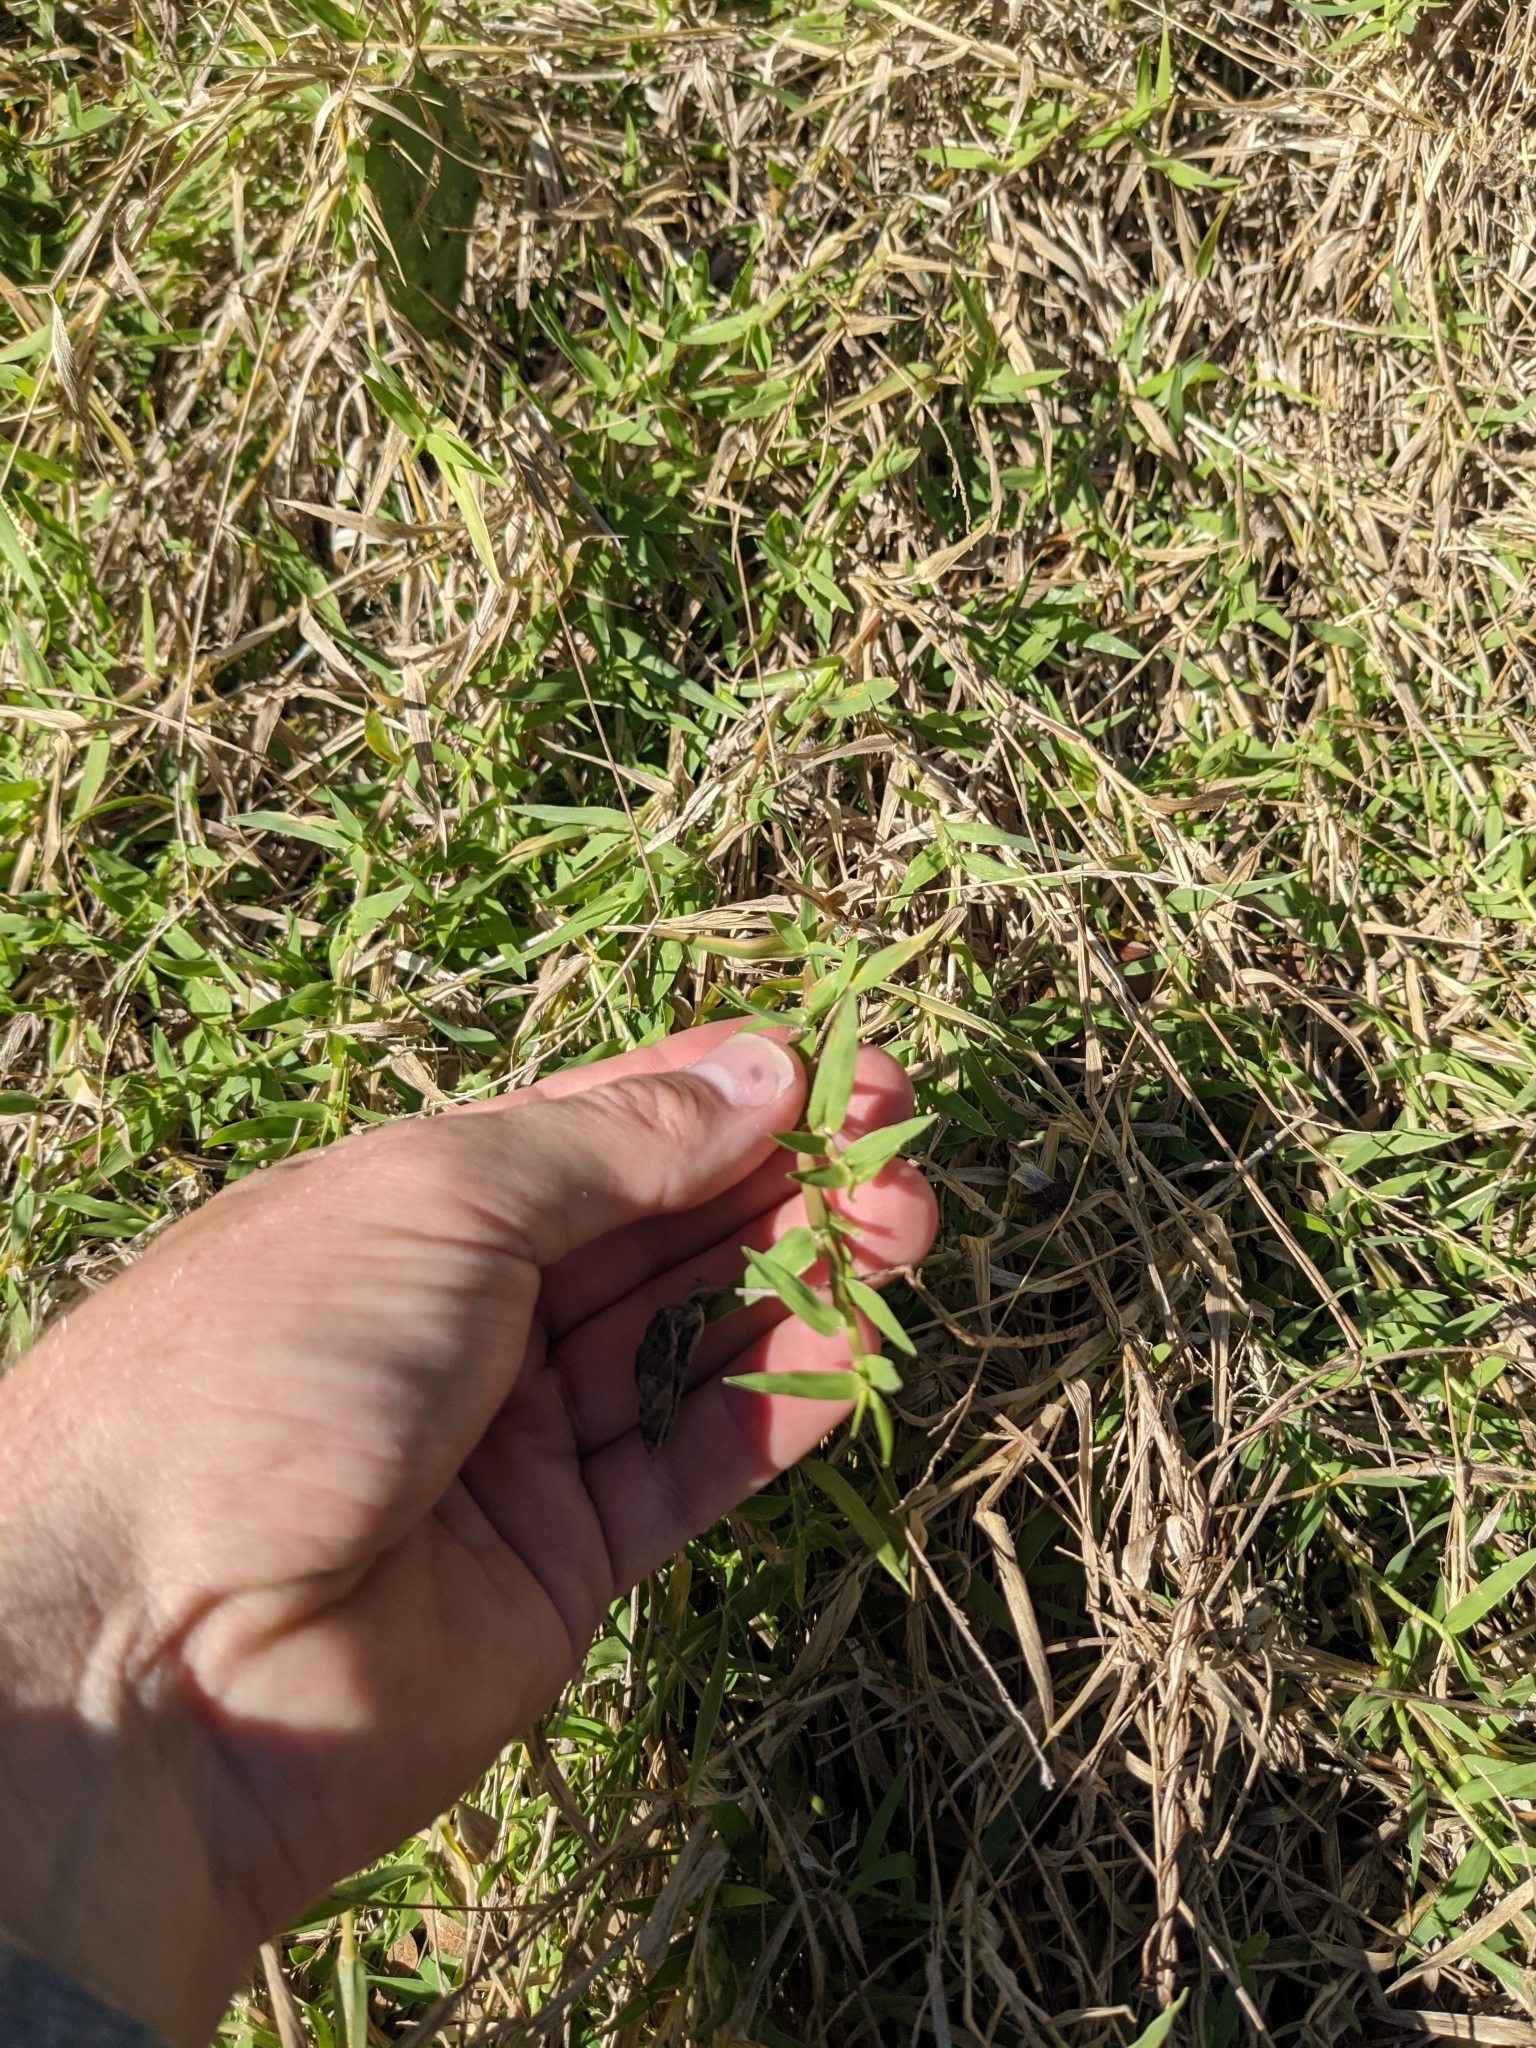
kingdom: Plantae
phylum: Tracheophyta
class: Liliopsida
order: Poales
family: Poaceae
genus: Urochloa
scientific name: Urochloa ciliatissima
